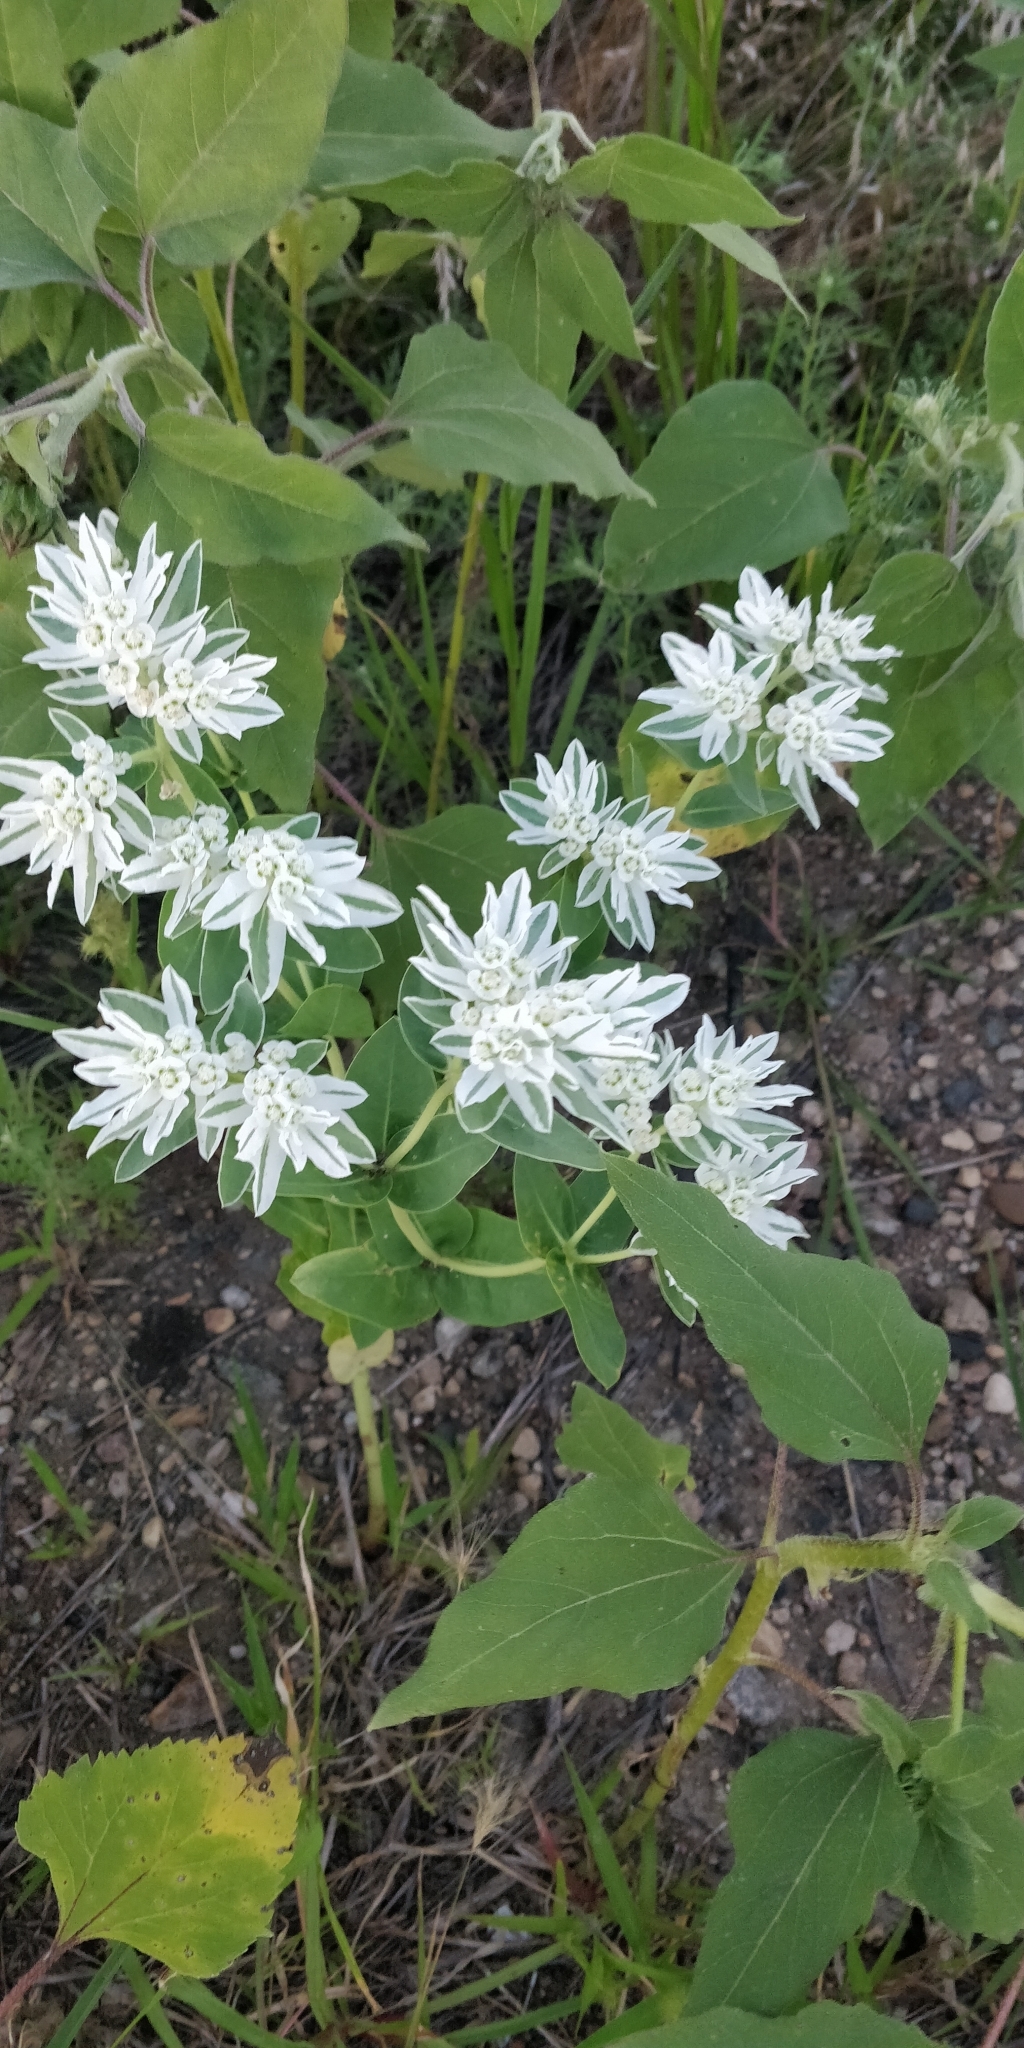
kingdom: Plantae
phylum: Tracheophyta
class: Magnoliopsida
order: Malpighiales
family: Euphorbiaceae
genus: Euphorbia
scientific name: Euphorbia marginata
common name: Ghostweed
